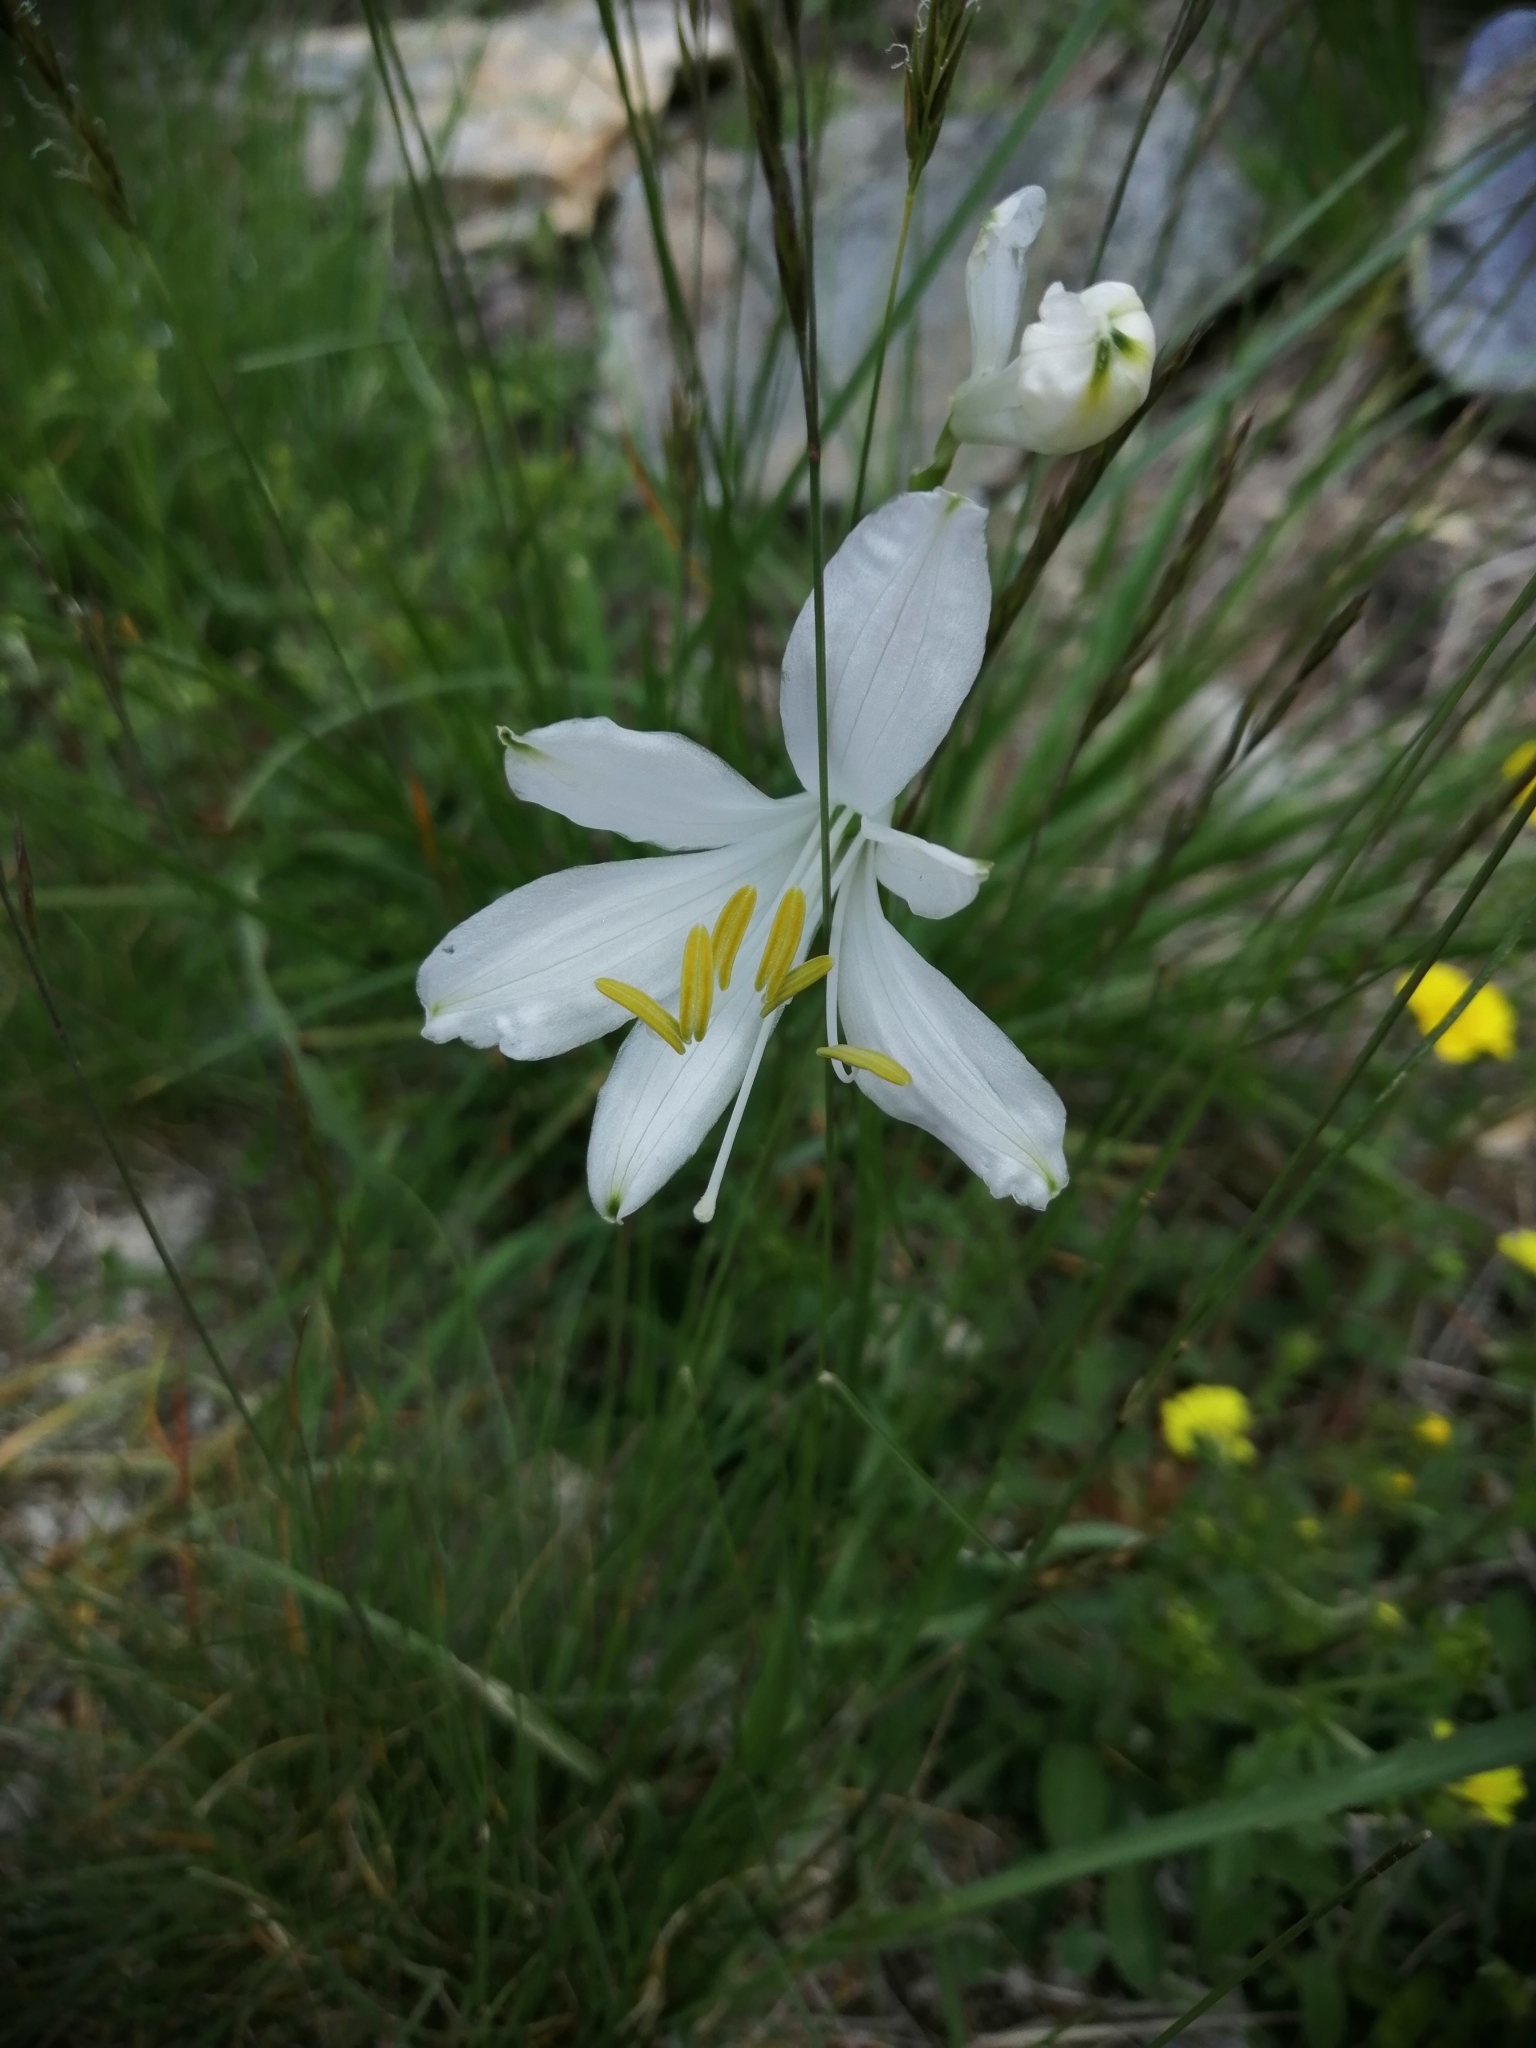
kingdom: Plantae
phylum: Tracheophyta
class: Liliopsida
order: Asparagales
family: Asparagaceae
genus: Paradisea
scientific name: Paradisea liliastrum
